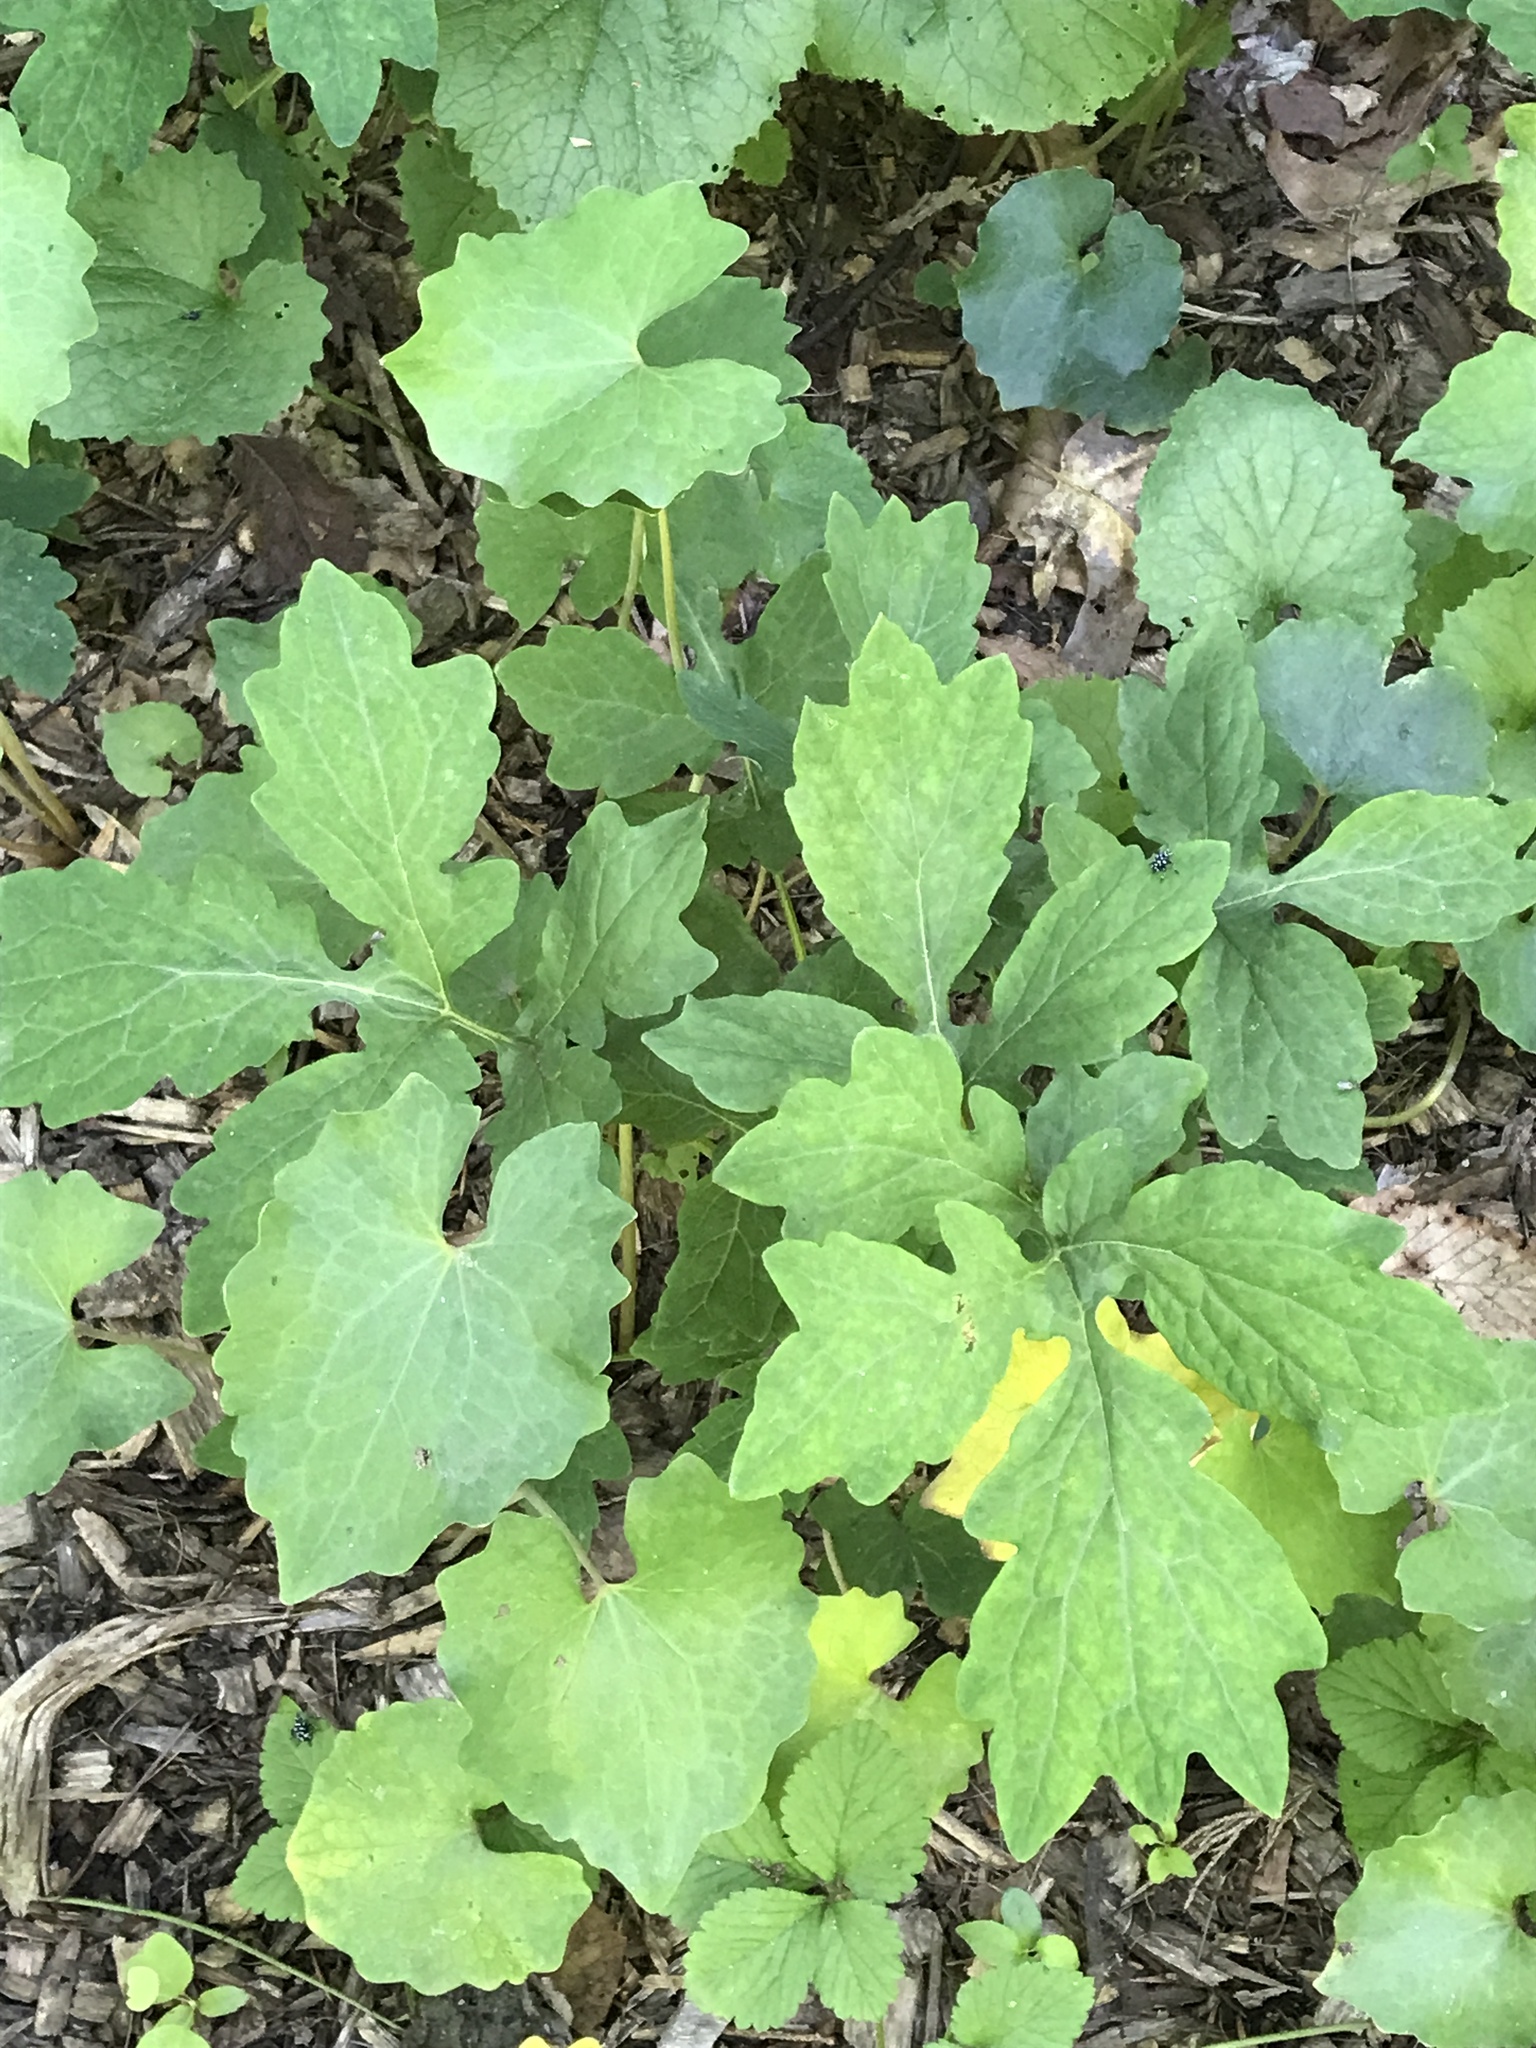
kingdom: Plantae
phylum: Tracheophyta
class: Magnoliopsida
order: Ranunculales
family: Papaveraceae
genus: Stylophorum
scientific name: Stylophorum diphyllum
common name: Celandine poppy
